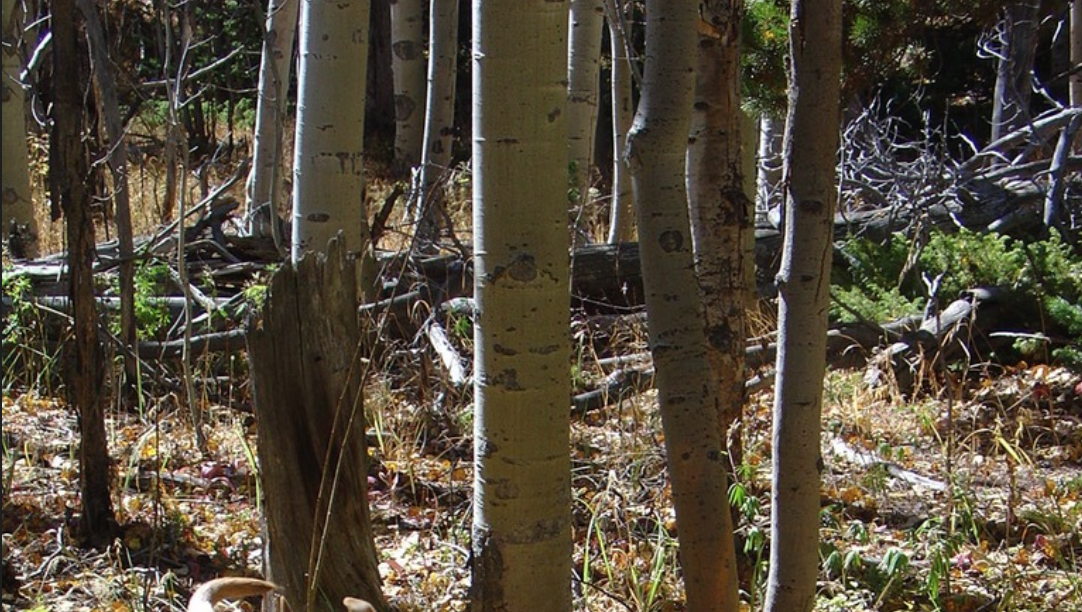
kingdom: Plantae
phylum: Tracheophyta
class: Magnoliopsida
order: Malpighiales
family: Salicaceae
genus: Populus
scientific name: Populus tremuloides
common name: Quaking aspen
